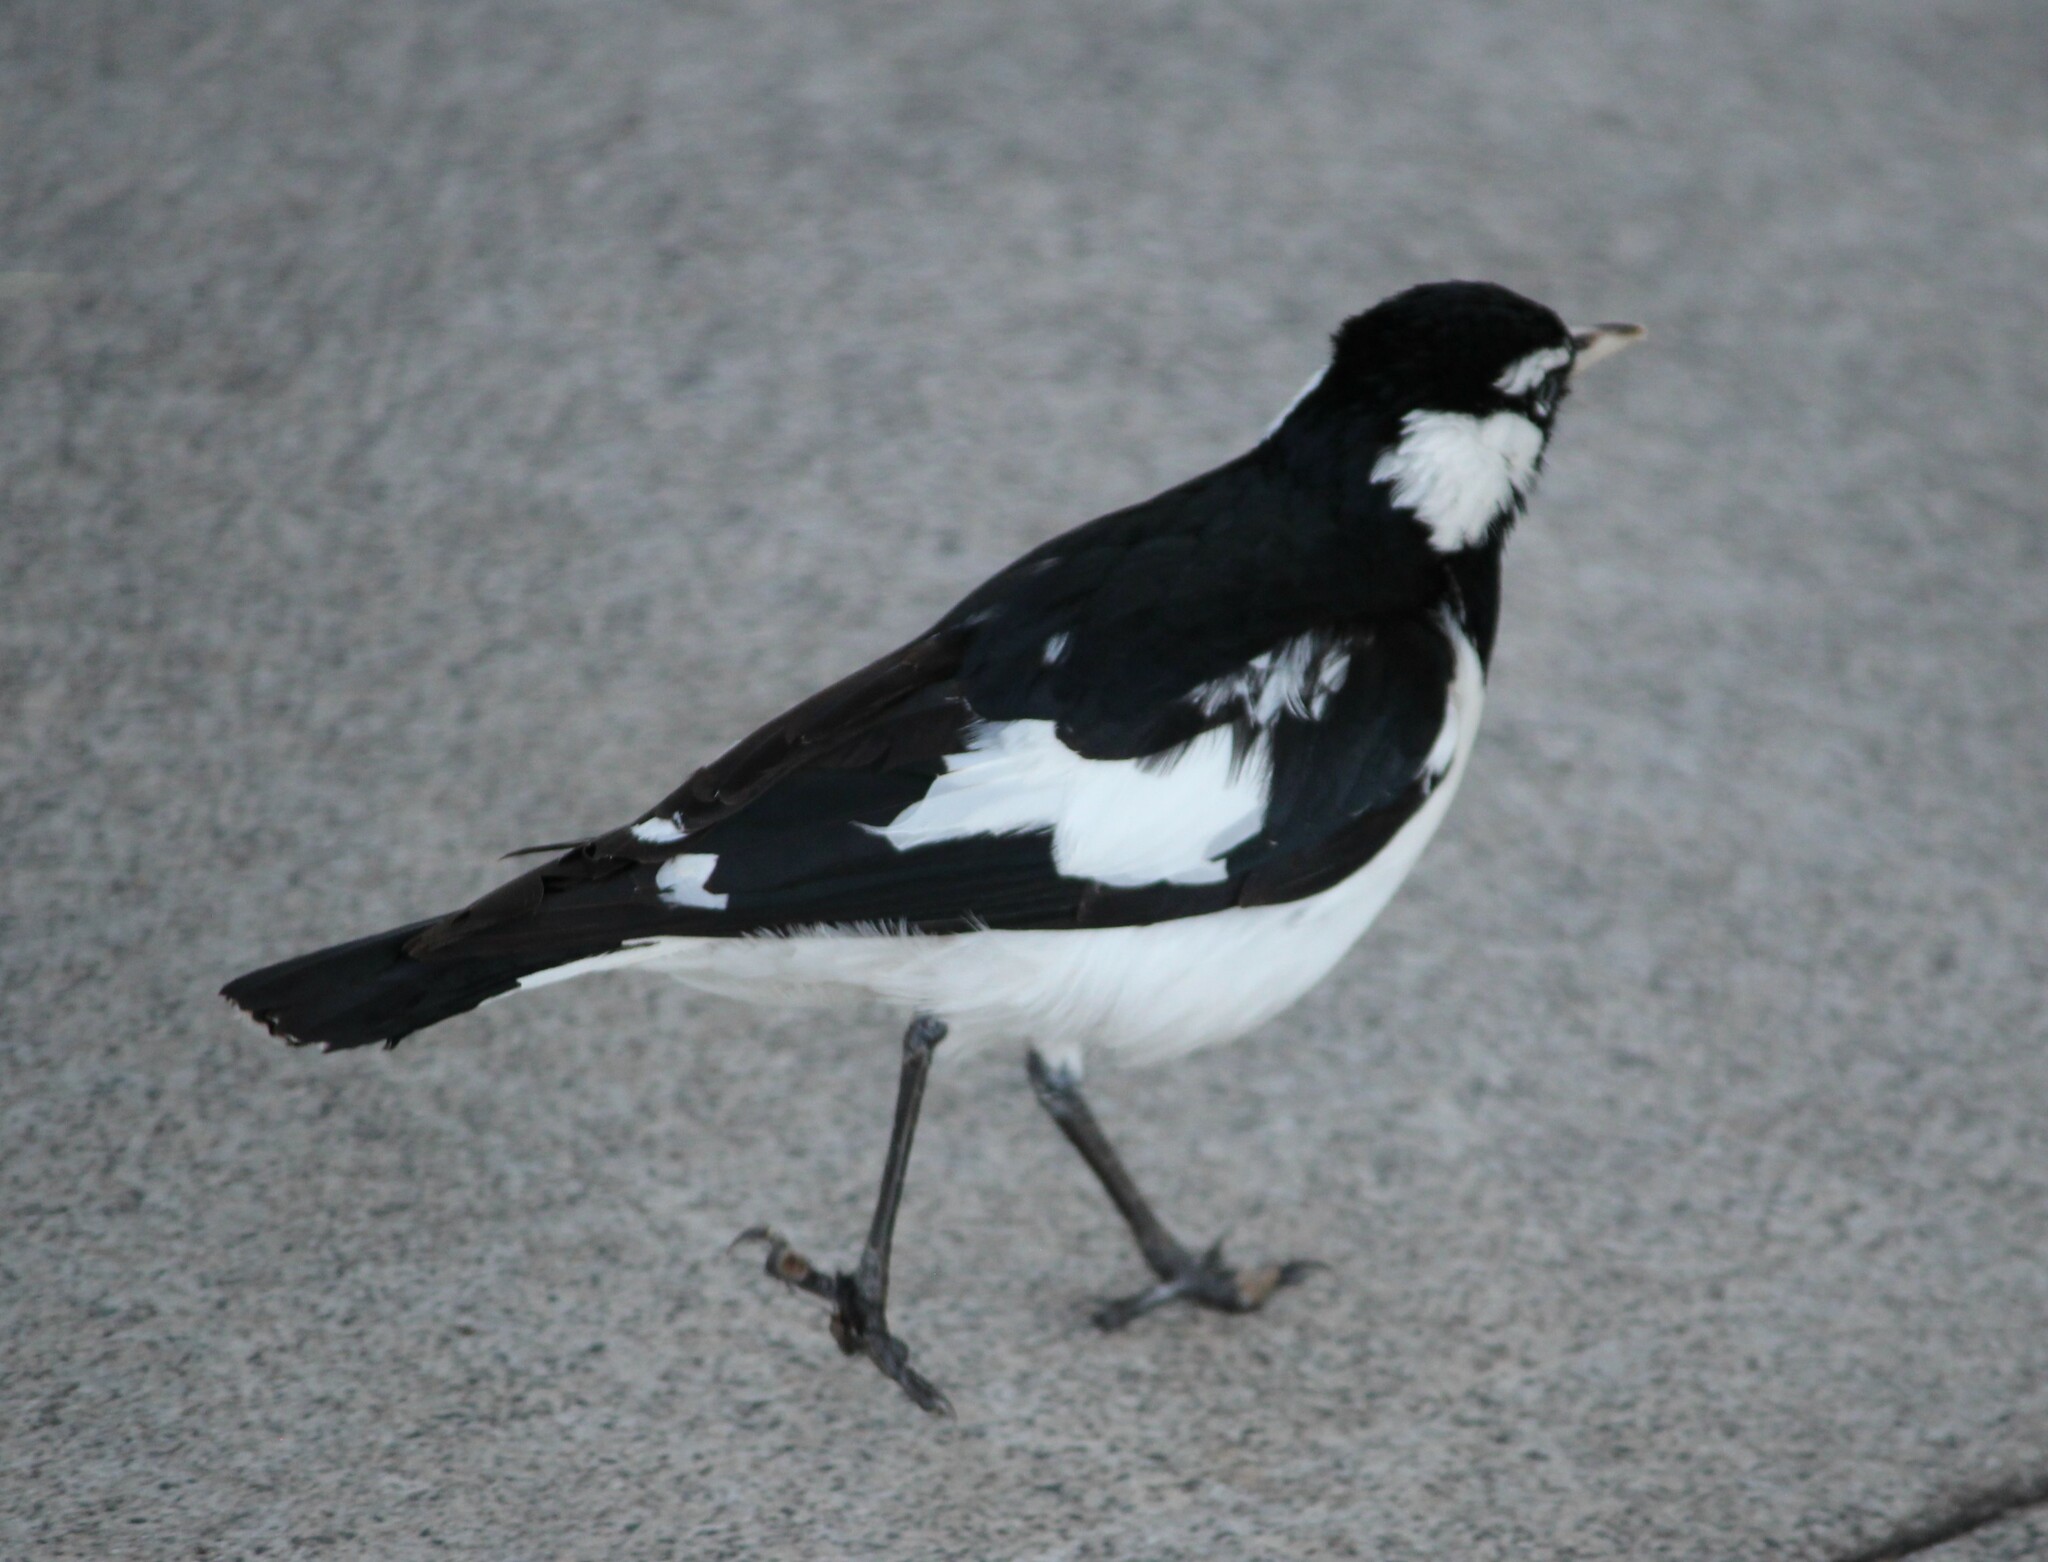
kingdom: Animalia
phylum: Chordata
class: Aves
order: Passeriformes
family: Monarchidae
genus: Grallina
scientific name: Grallina cyanoleuca
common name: Magpie-lark
